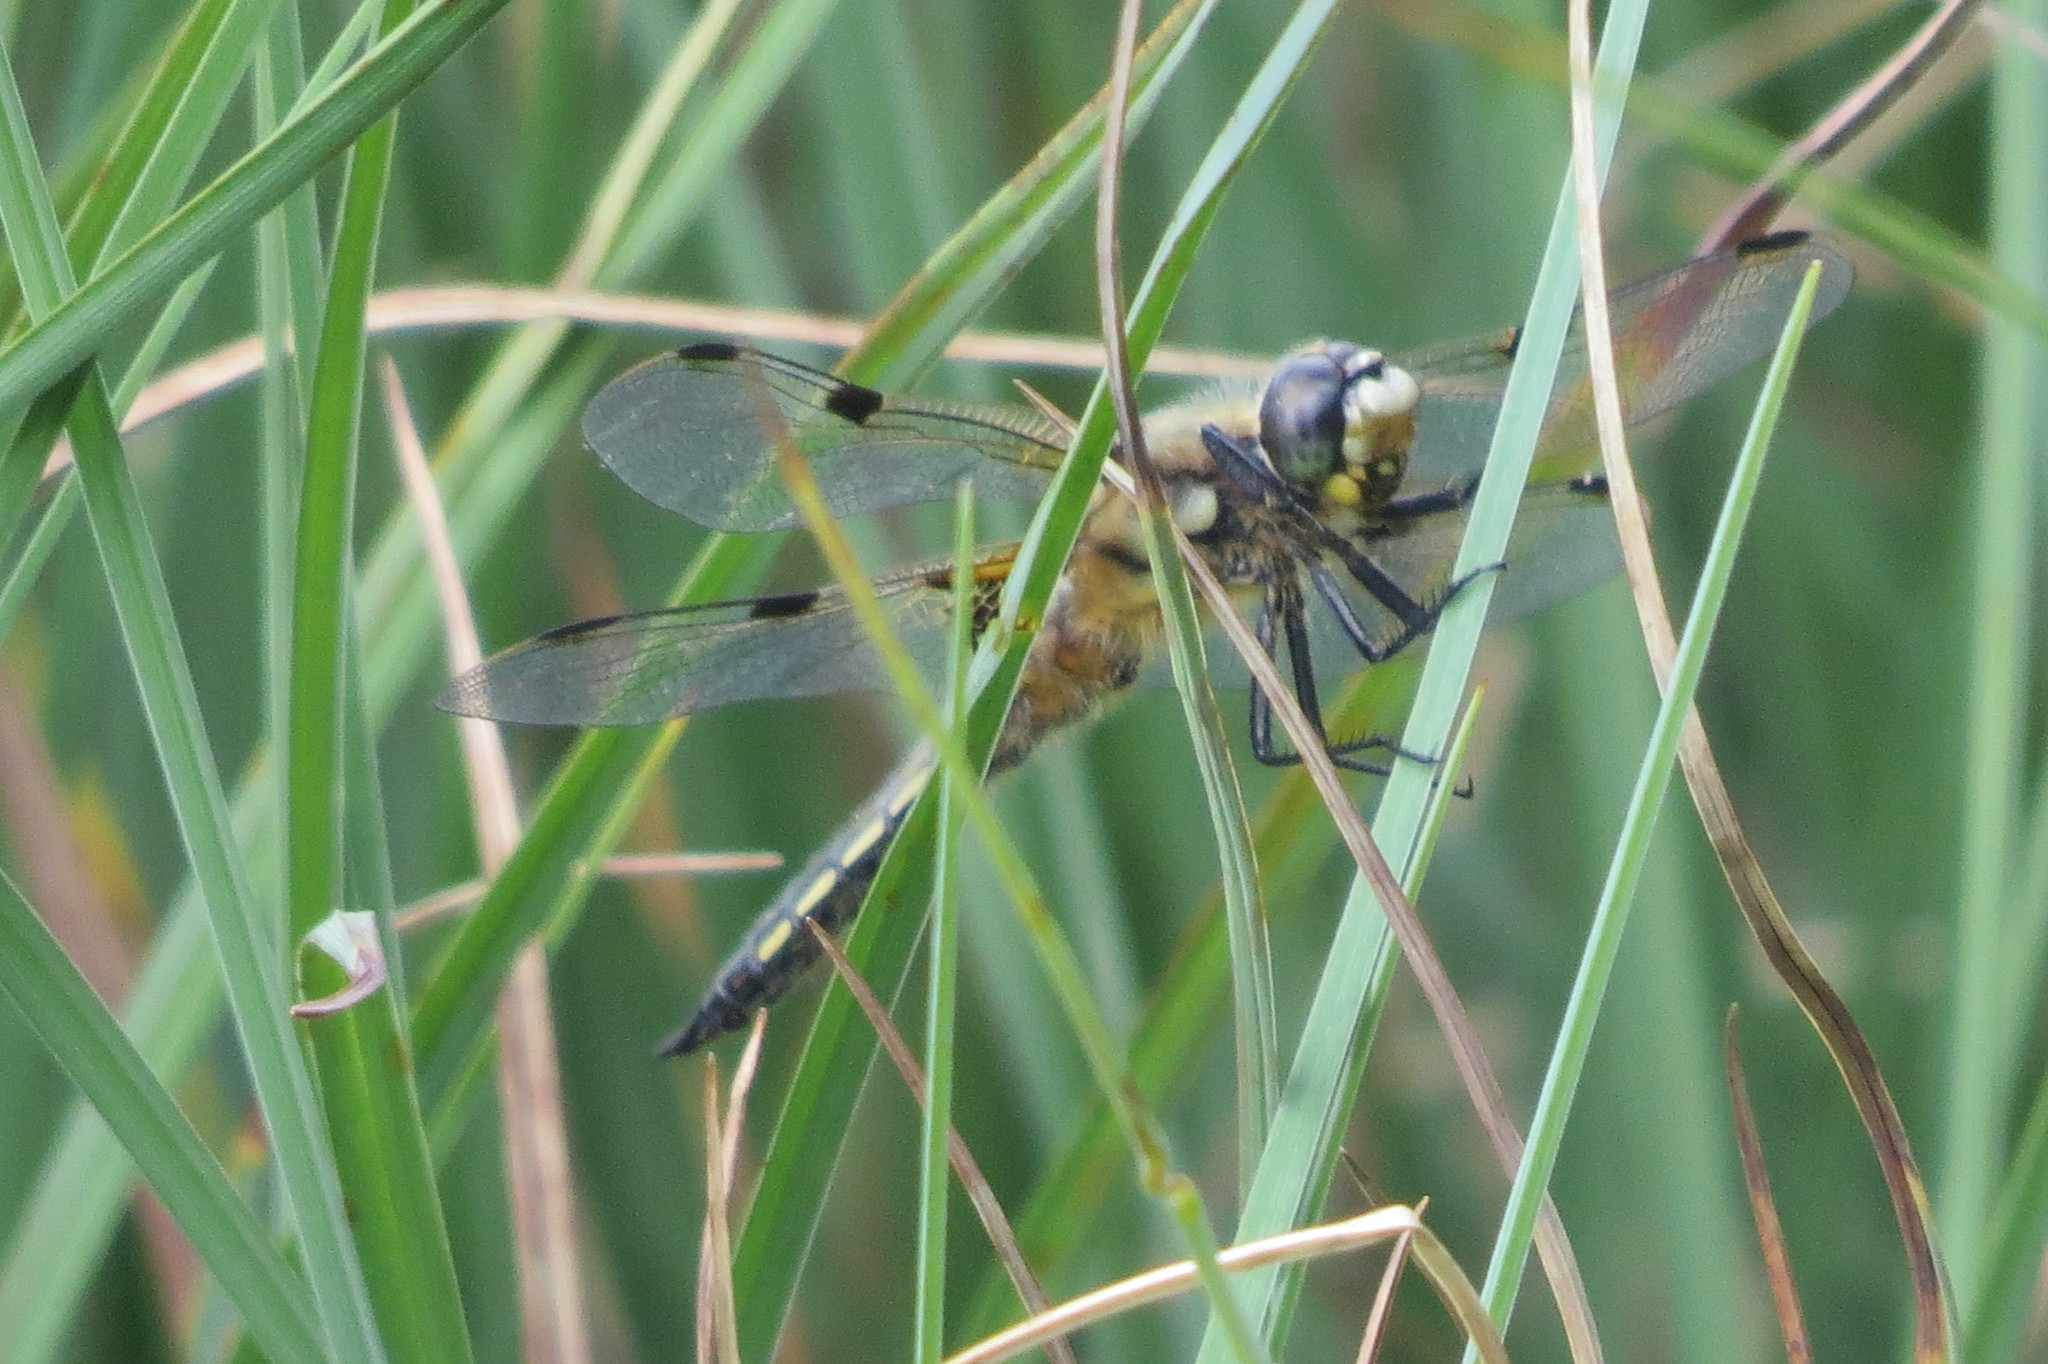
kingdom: Animalia
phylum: Arthropoda
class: Insecta
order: Odonata
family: Libellulidae
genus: Libellula
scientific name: Libellula quadrimaculata
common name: Four-spotted chaser
